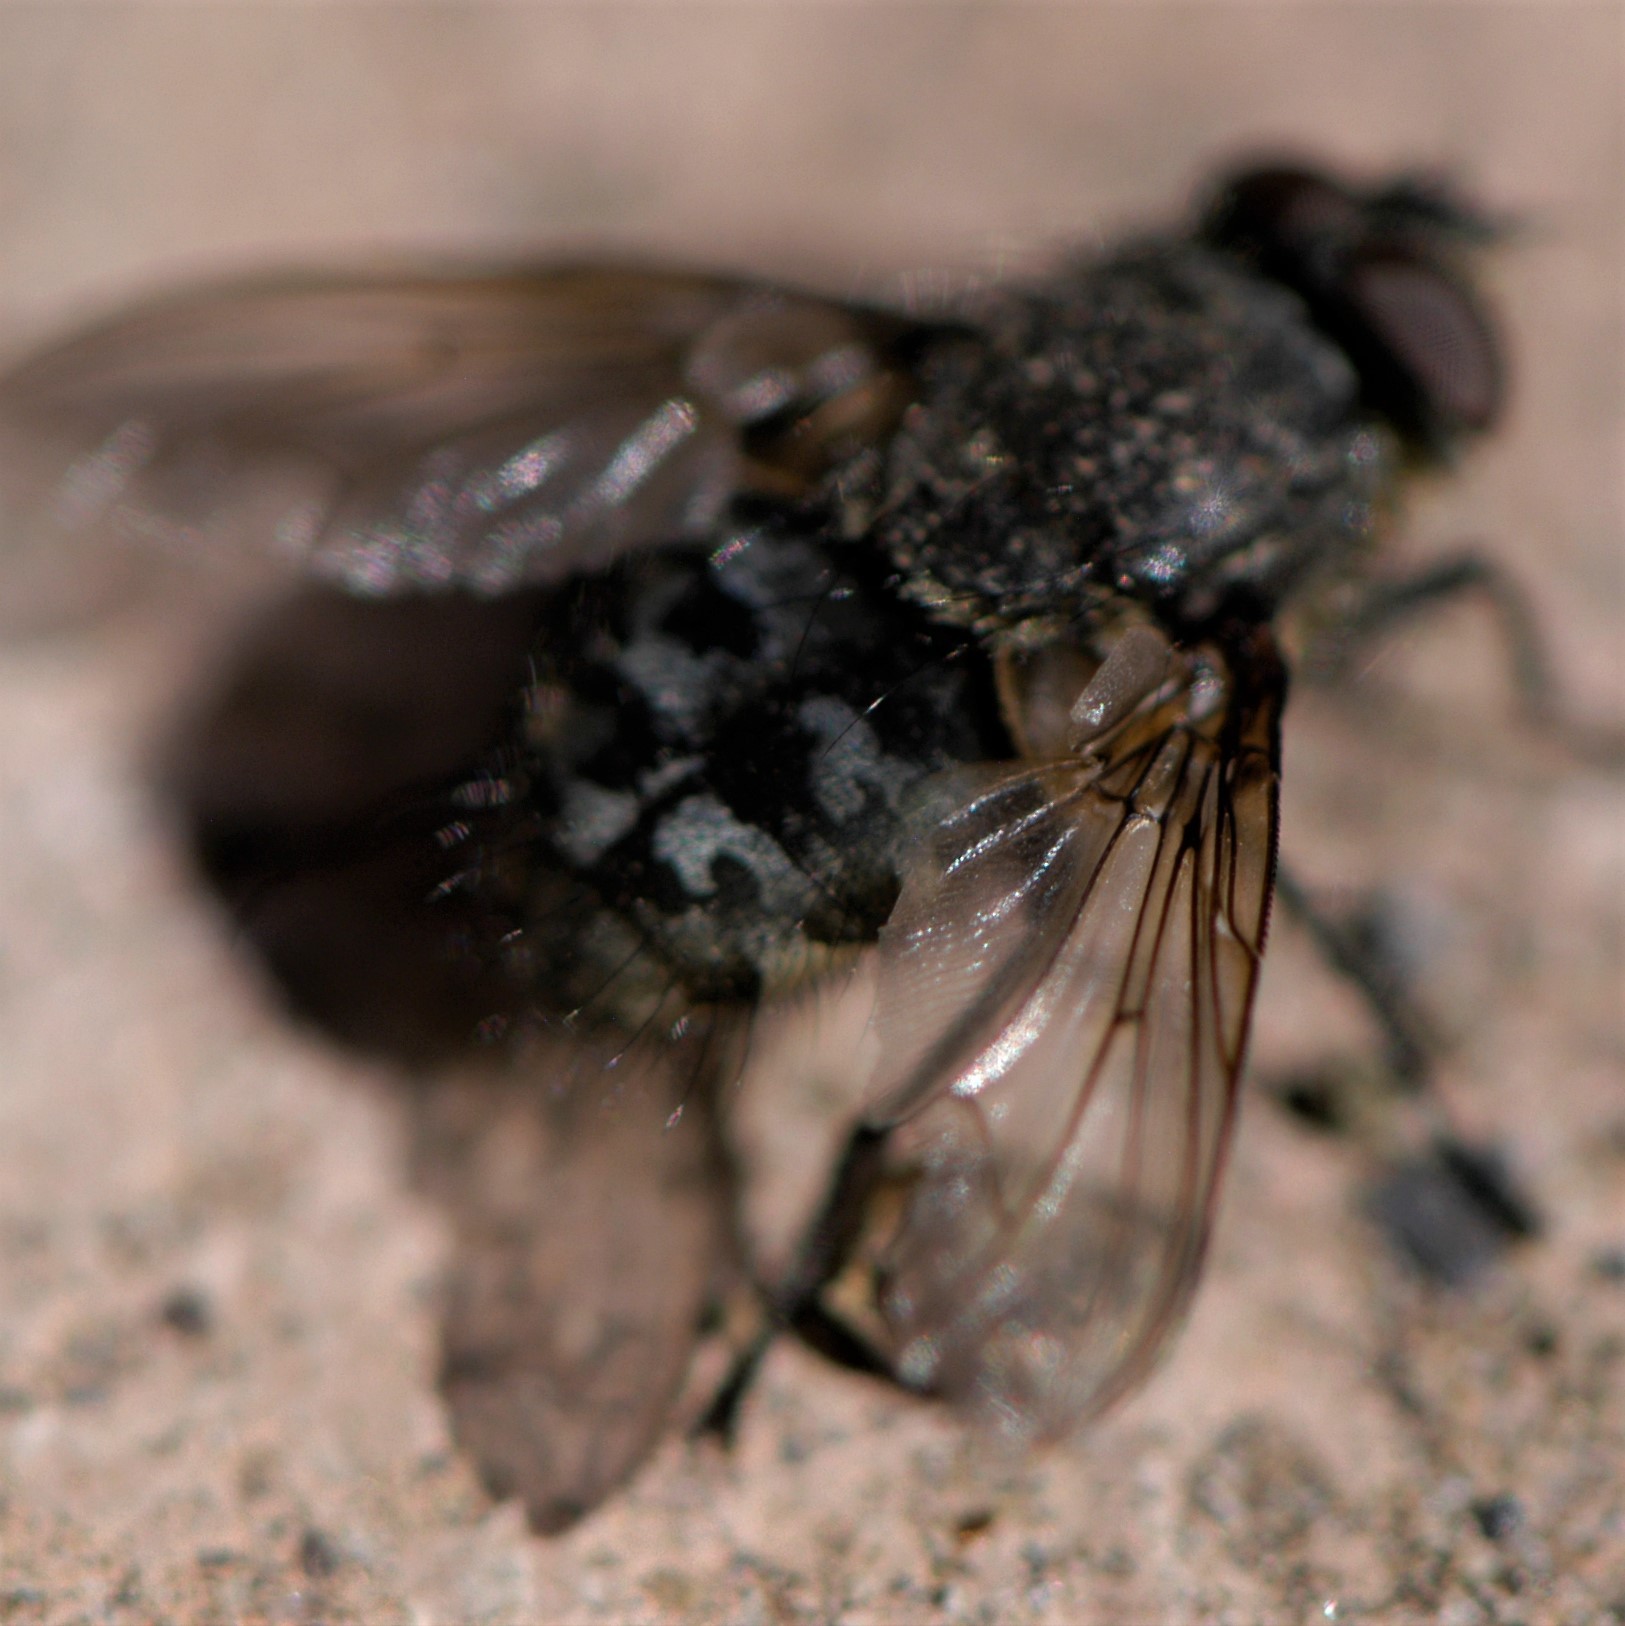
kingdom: Animalia
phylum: Arthropoda
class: Insecta
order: Diptera
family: Polleniidae
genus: Pollenia
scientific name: Pollenia
